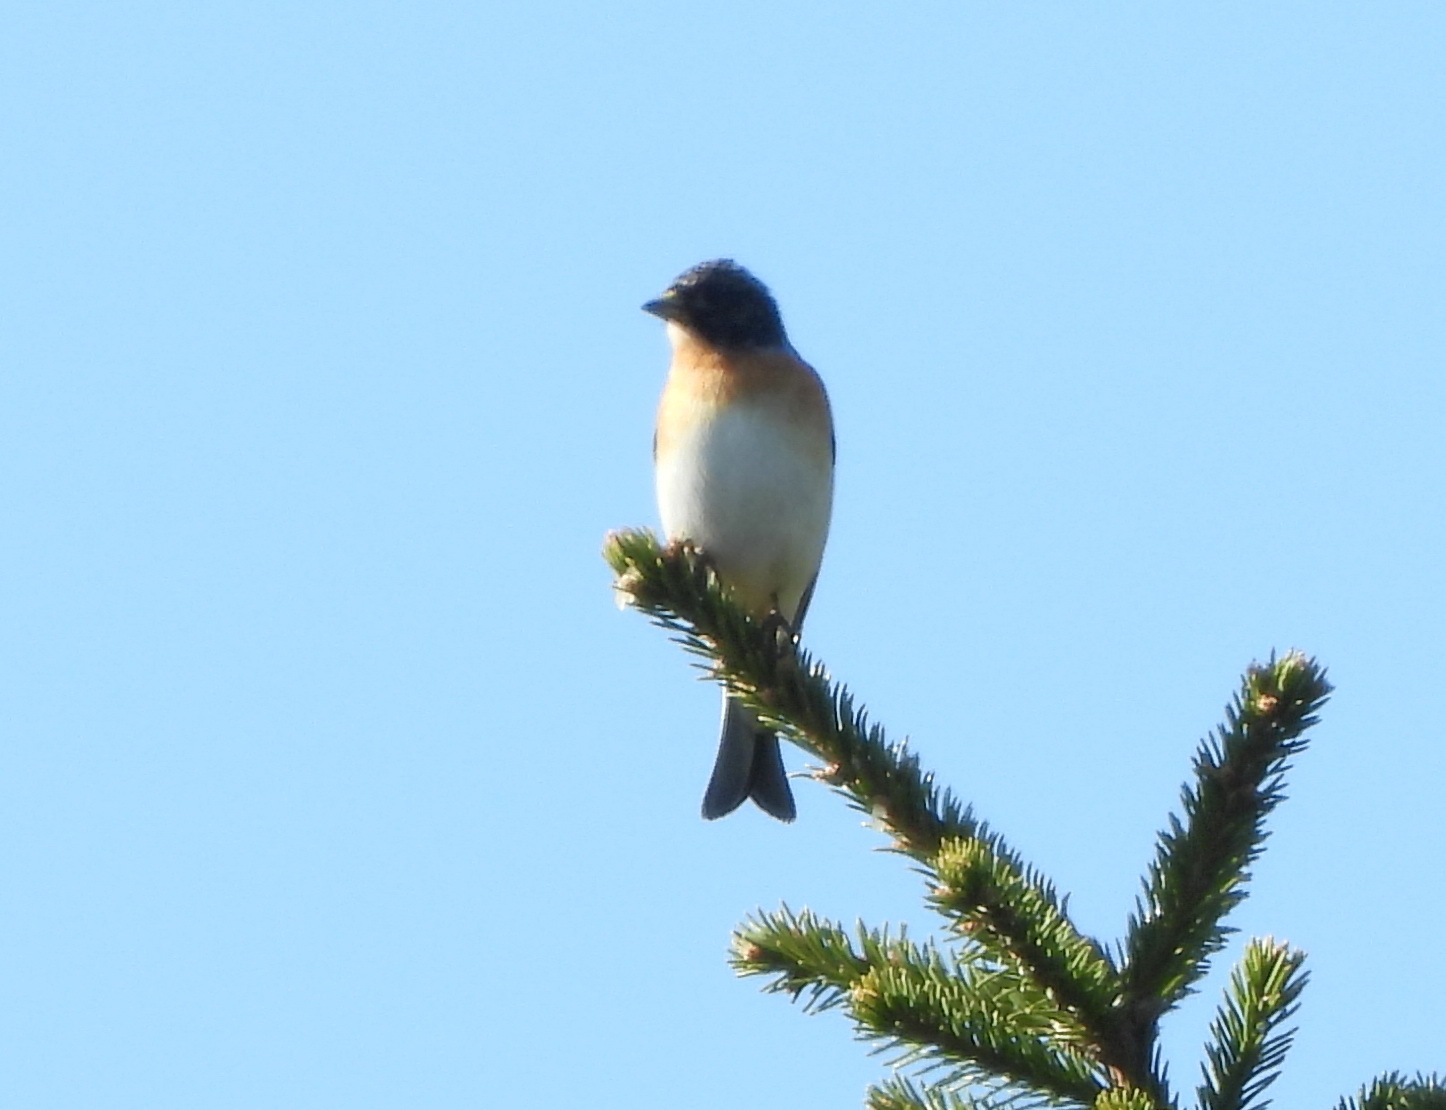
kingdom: Animalia
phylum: Chordata
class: Aves
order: Passeriformes
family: Fringillidae
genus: Fringilla
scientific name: Fringilla montifringilla
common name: Brambling
